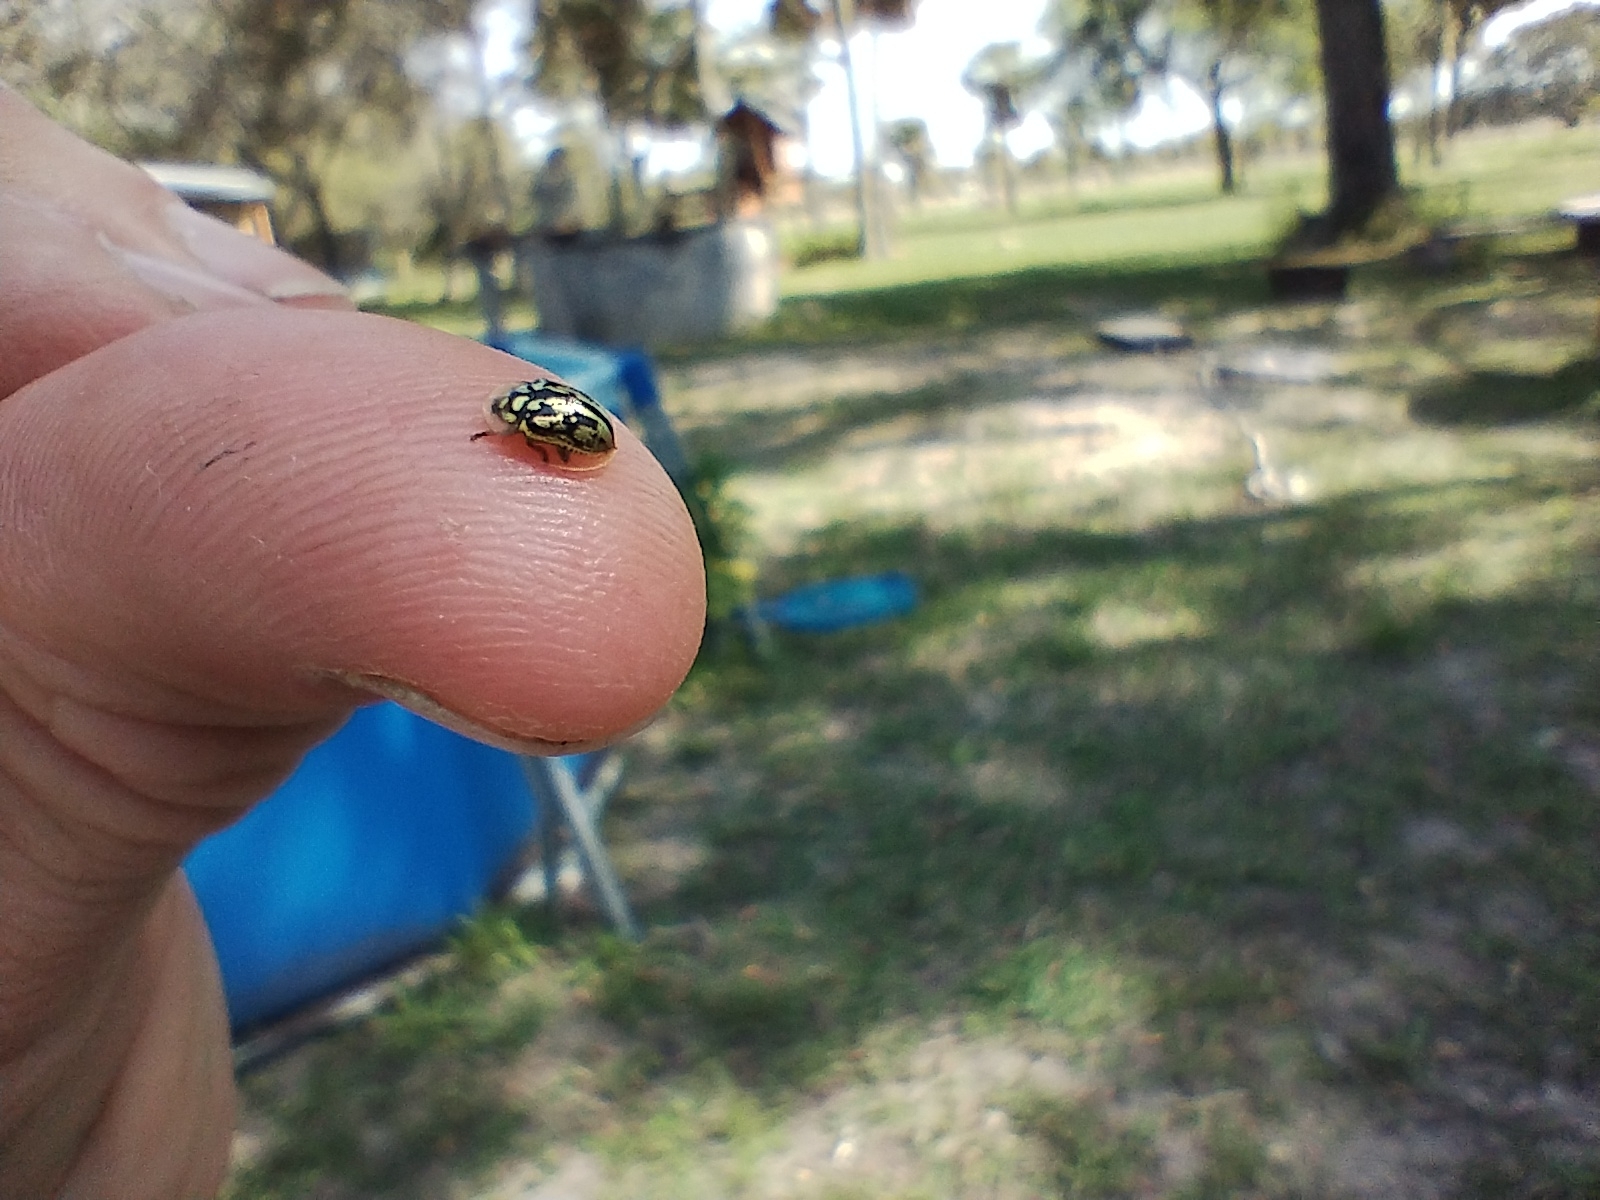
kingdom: Animalia
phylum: Arthropoda
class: Insecta
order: Coleoptera
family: Chrysomelidae
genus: Aporocassida
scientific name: Aporocassida graphica
